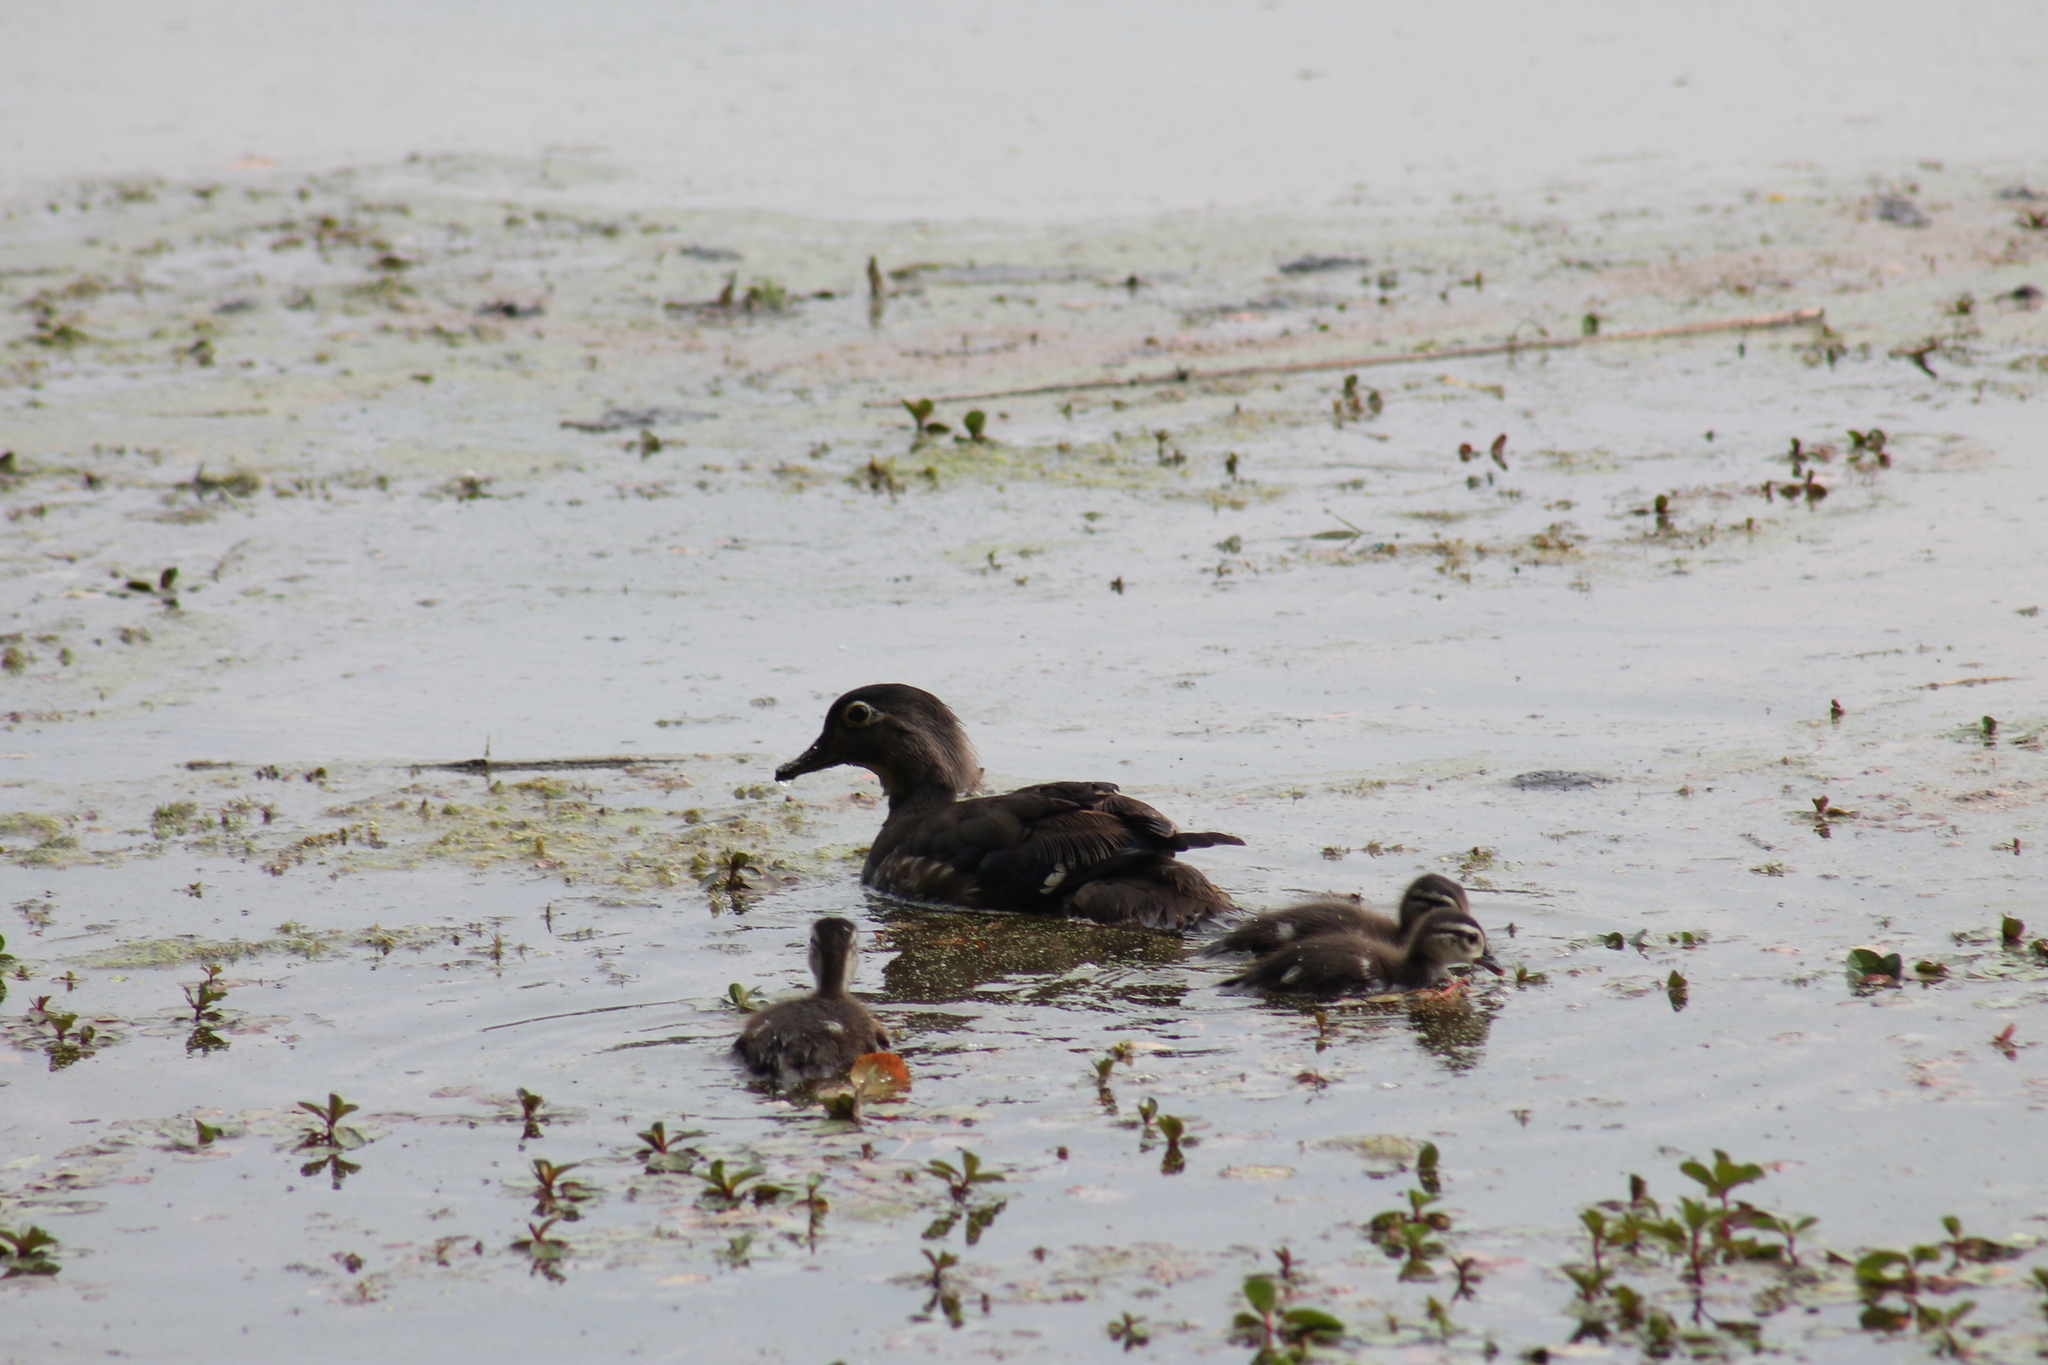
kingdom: Animalia
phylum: Chordata
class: Aves
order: Anseriformes
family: Anatidae
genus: Aix
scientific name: Aix sponsa
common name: Wood duck
